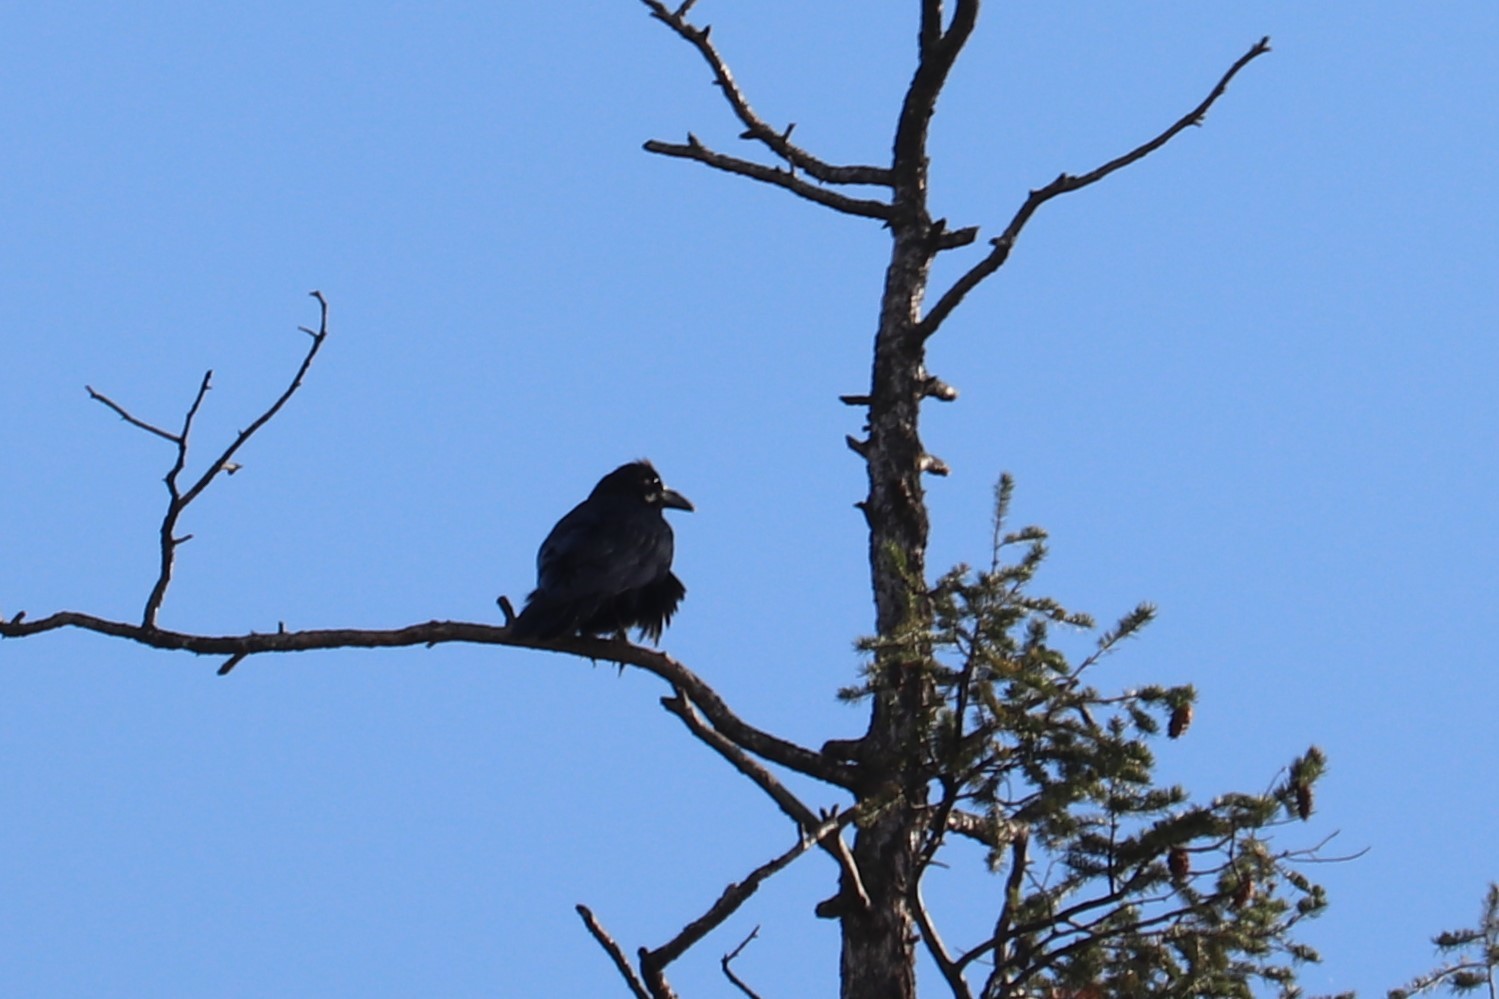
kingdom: Animalia
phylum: Chordata
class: Aves
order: Passeriformes
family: Corvidae
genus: Corvus
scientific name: Corvus corax
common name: Common raven
